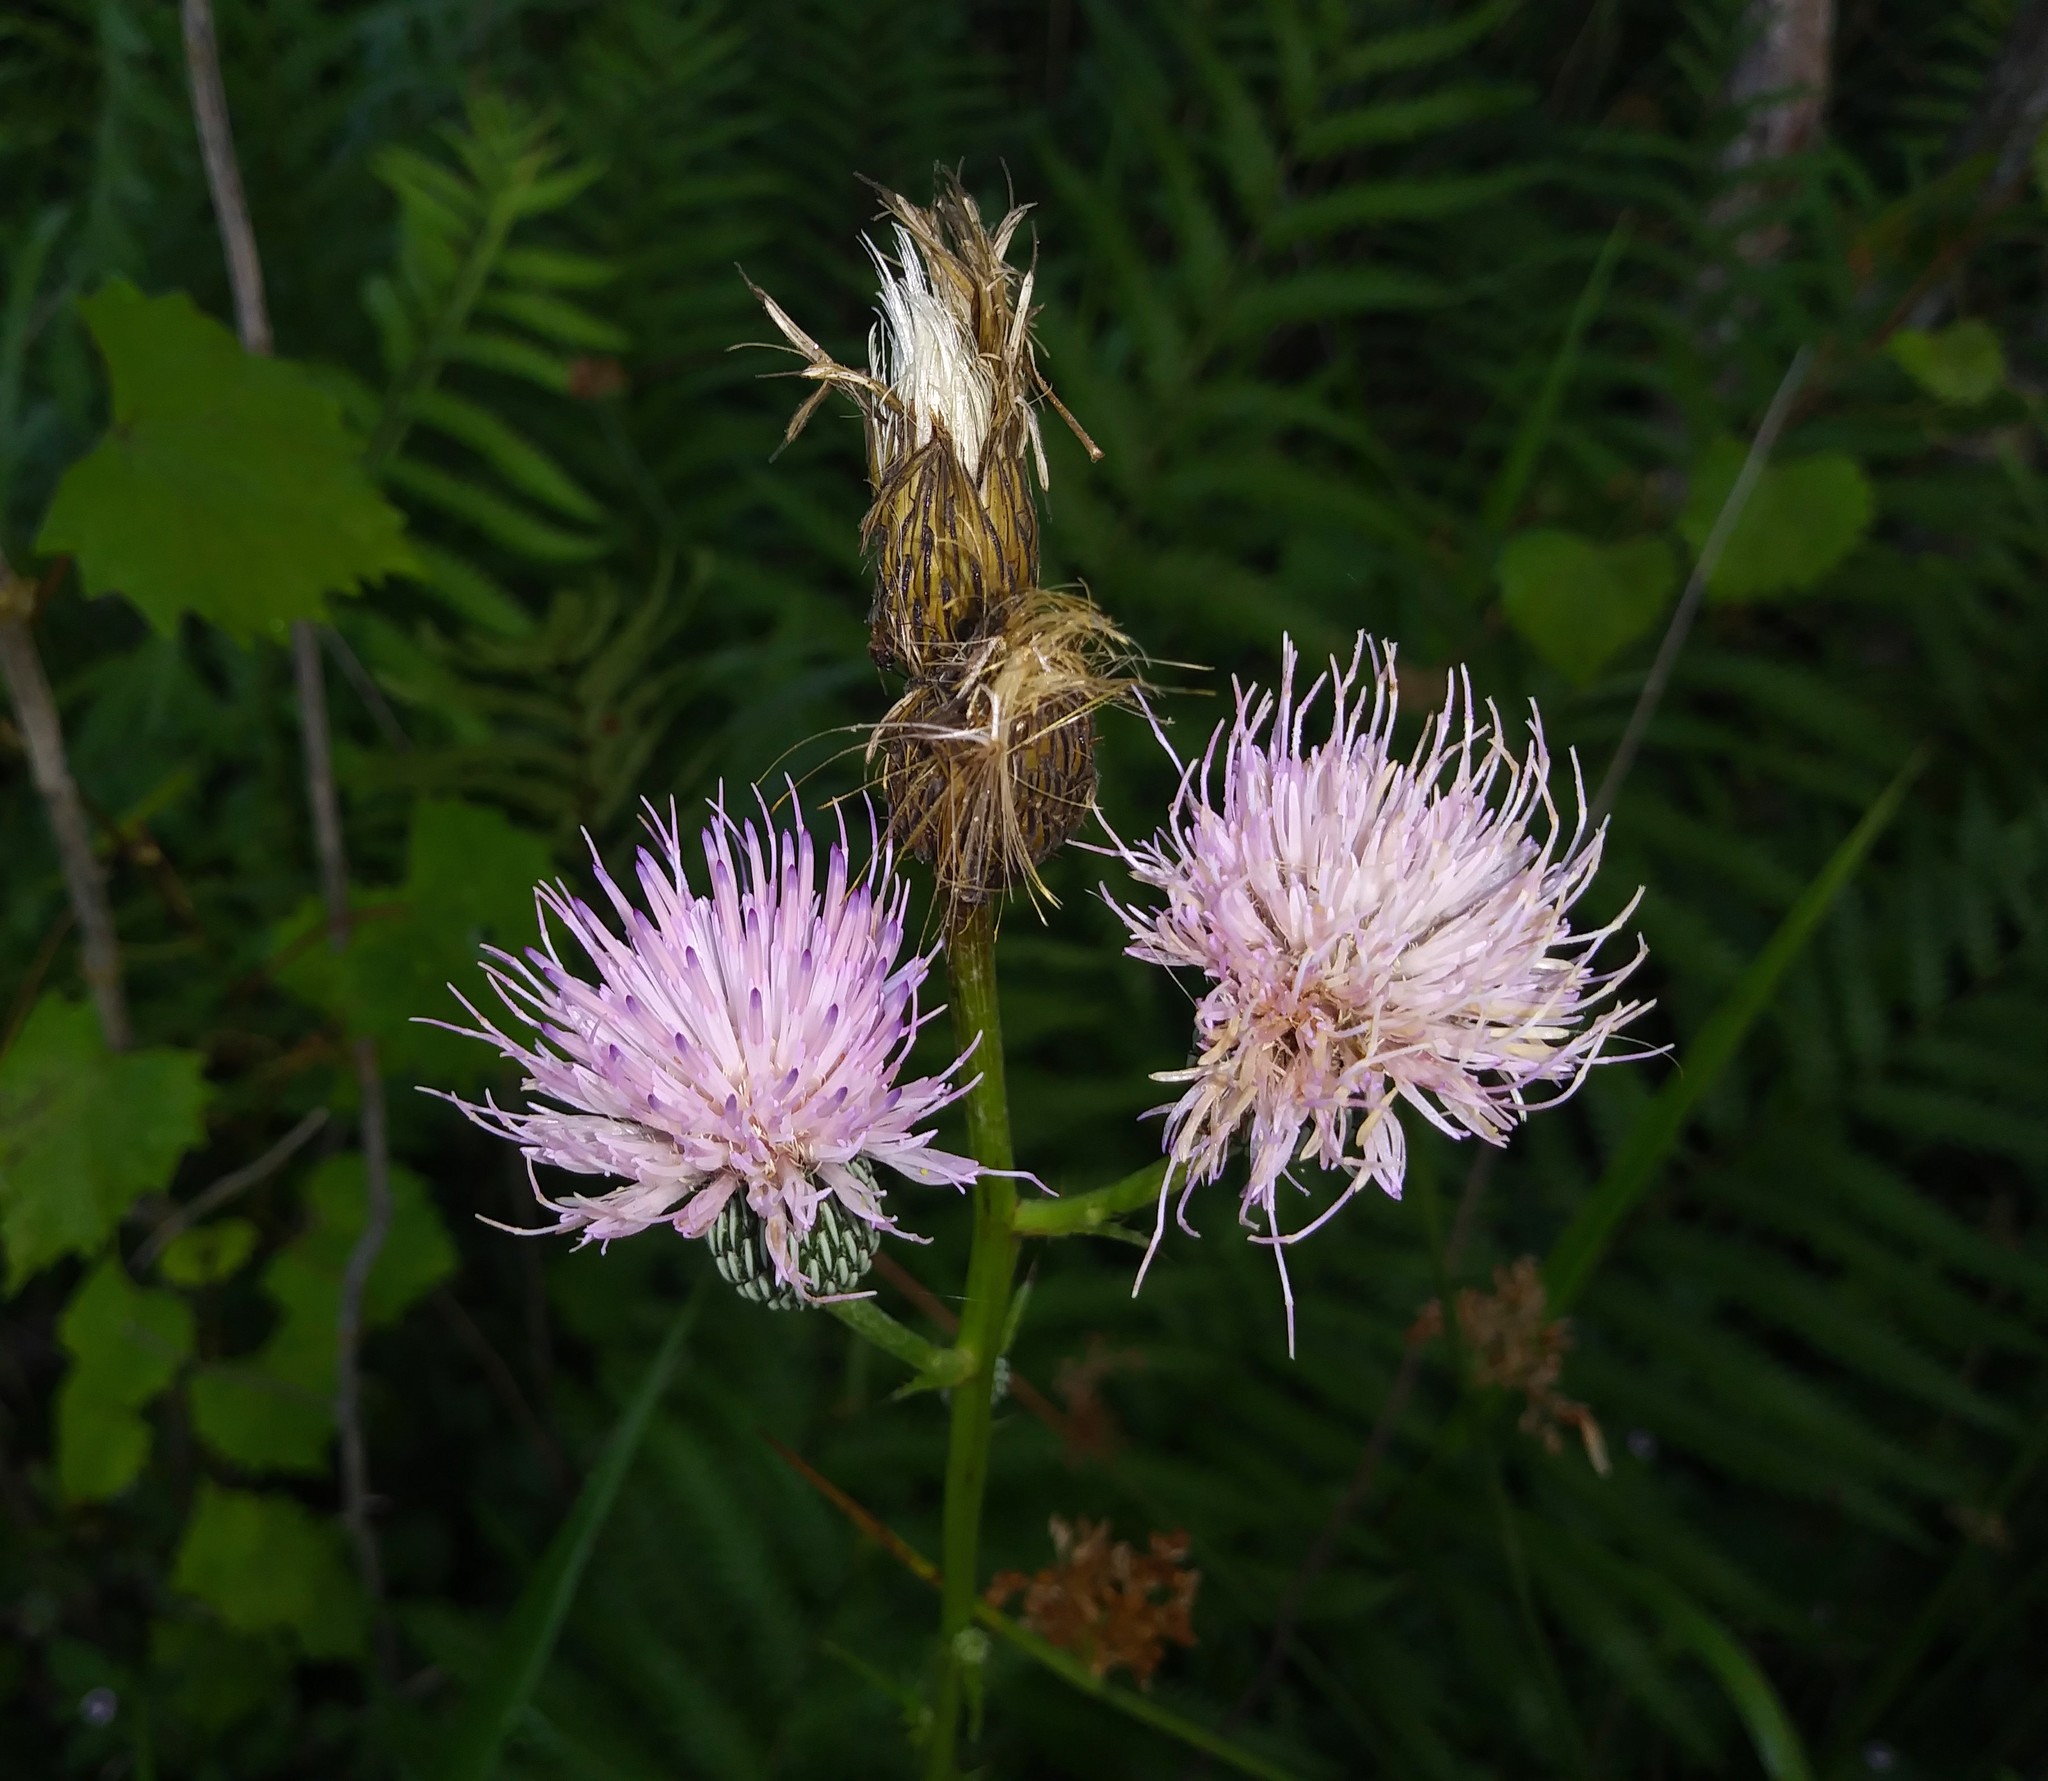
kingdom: Plantae
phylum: Tracheophyta
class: Magnoliopsida
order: Asterales
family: Asteraceae
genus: Cirsium
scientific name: Cirsium nuttalii
